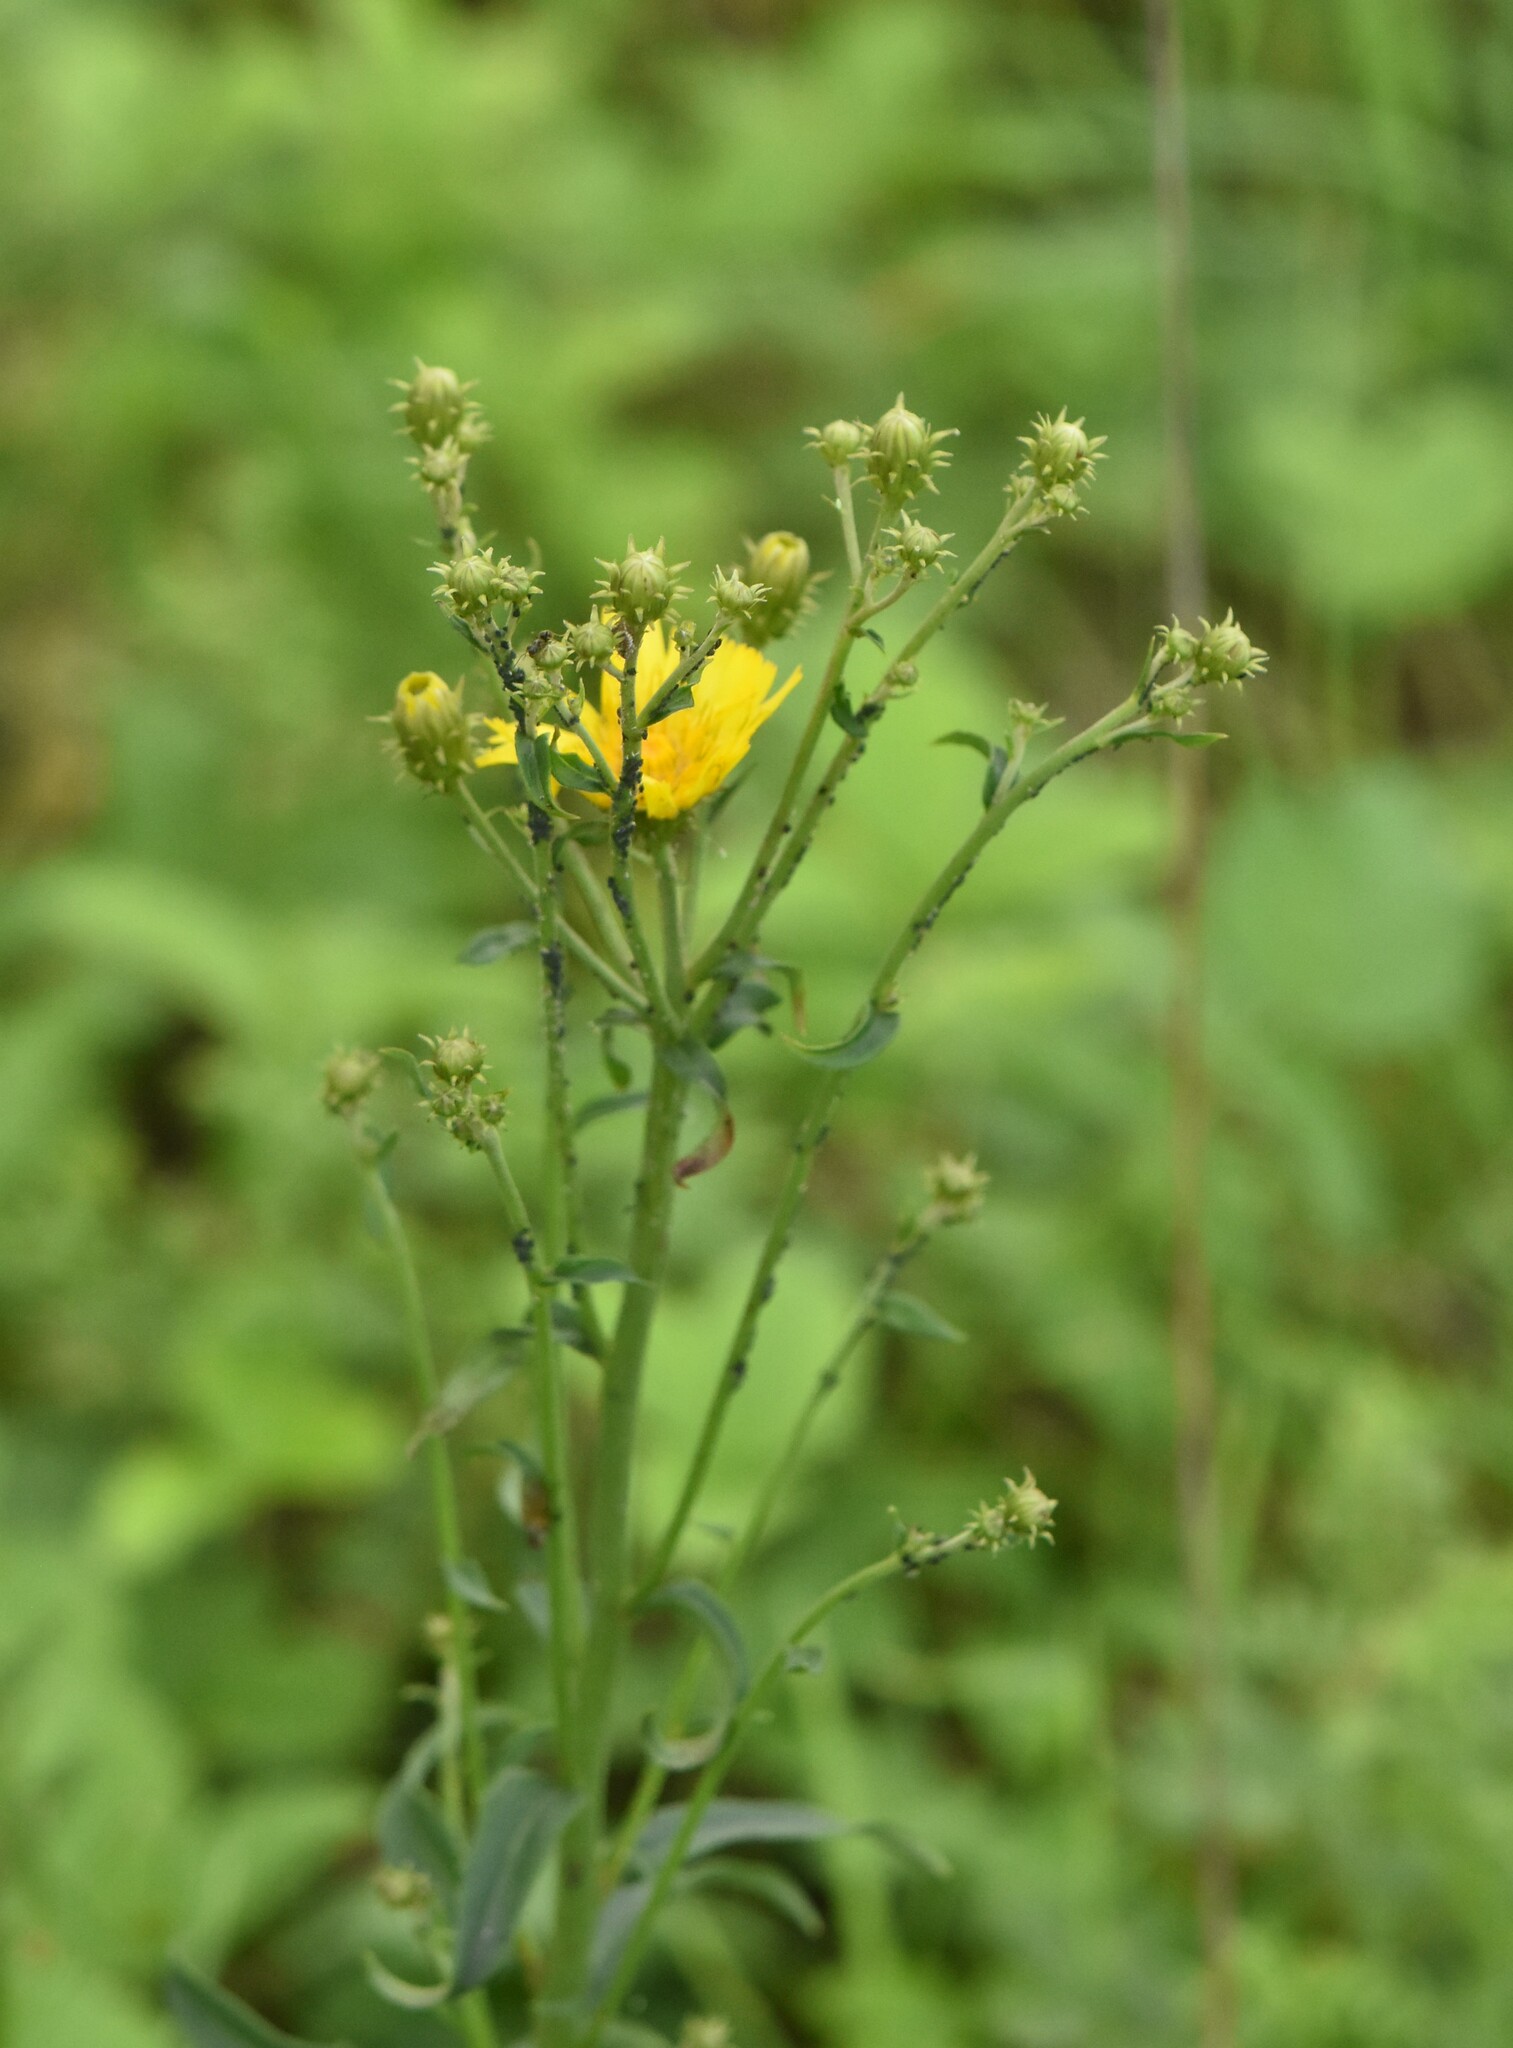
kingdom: Plantae
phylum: Tracheophyta
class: Magnoliopsida
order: Asterales
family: Asteraceae
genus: Hieracium
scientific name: Hieracium umbellatum
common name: Northern hawkweed
